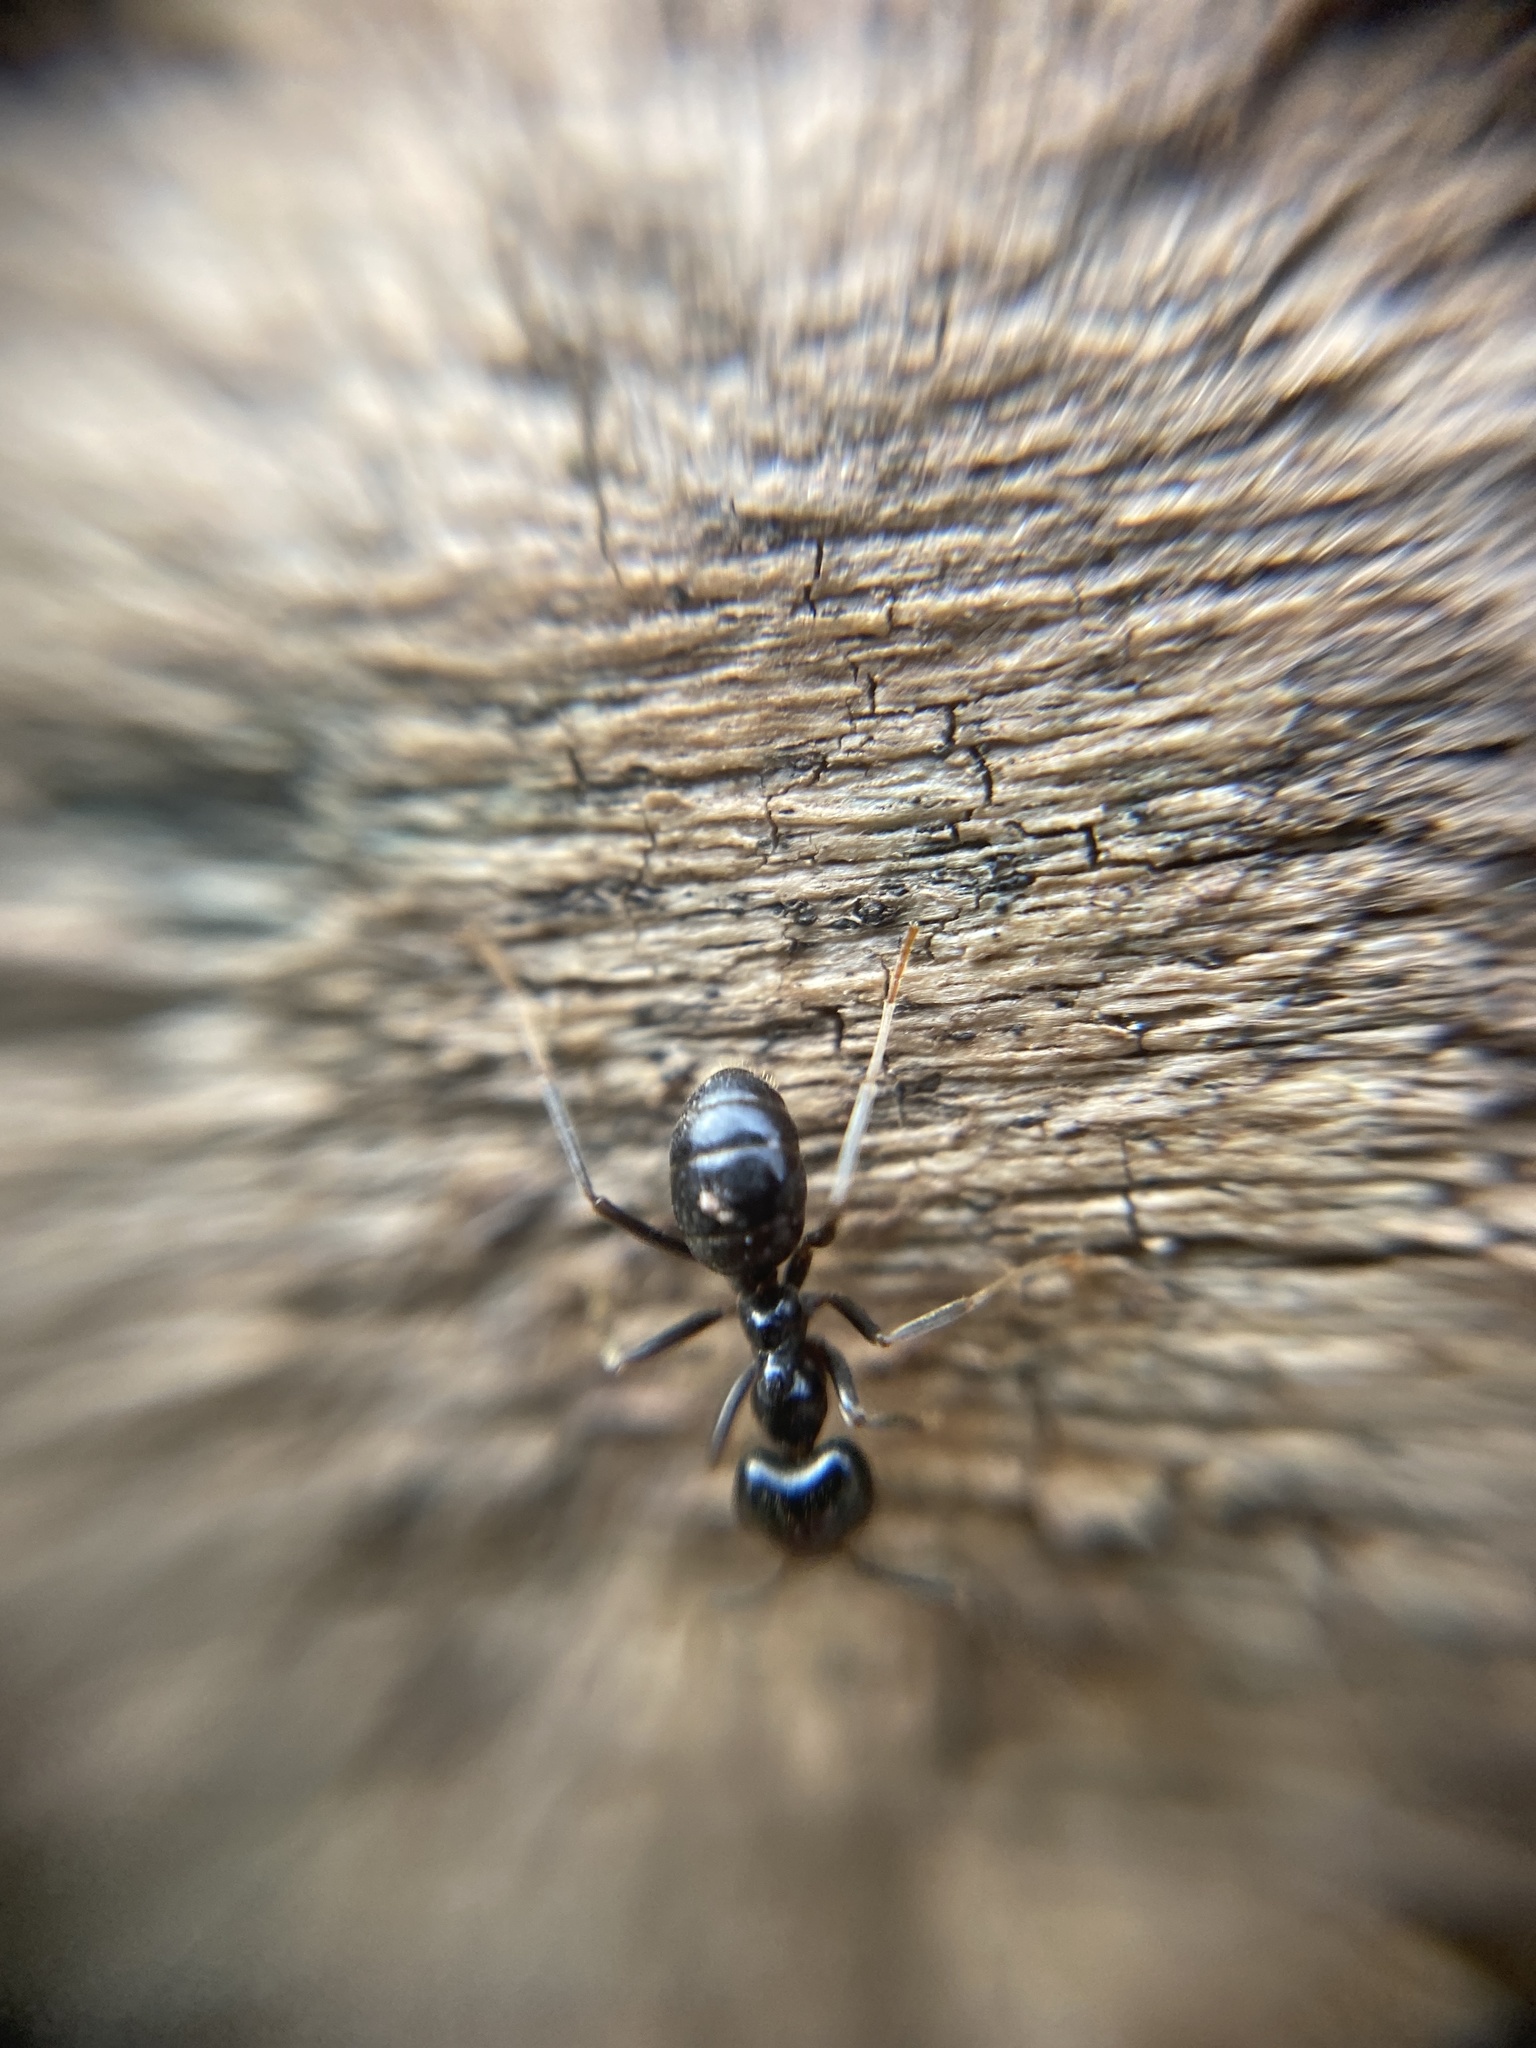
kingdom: Animalia
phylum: Arthropoda
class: Insecta
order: Hymenoptera
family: Formicidae
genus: Lasius
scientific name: Lasius fuliginosus
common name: Jet ant
